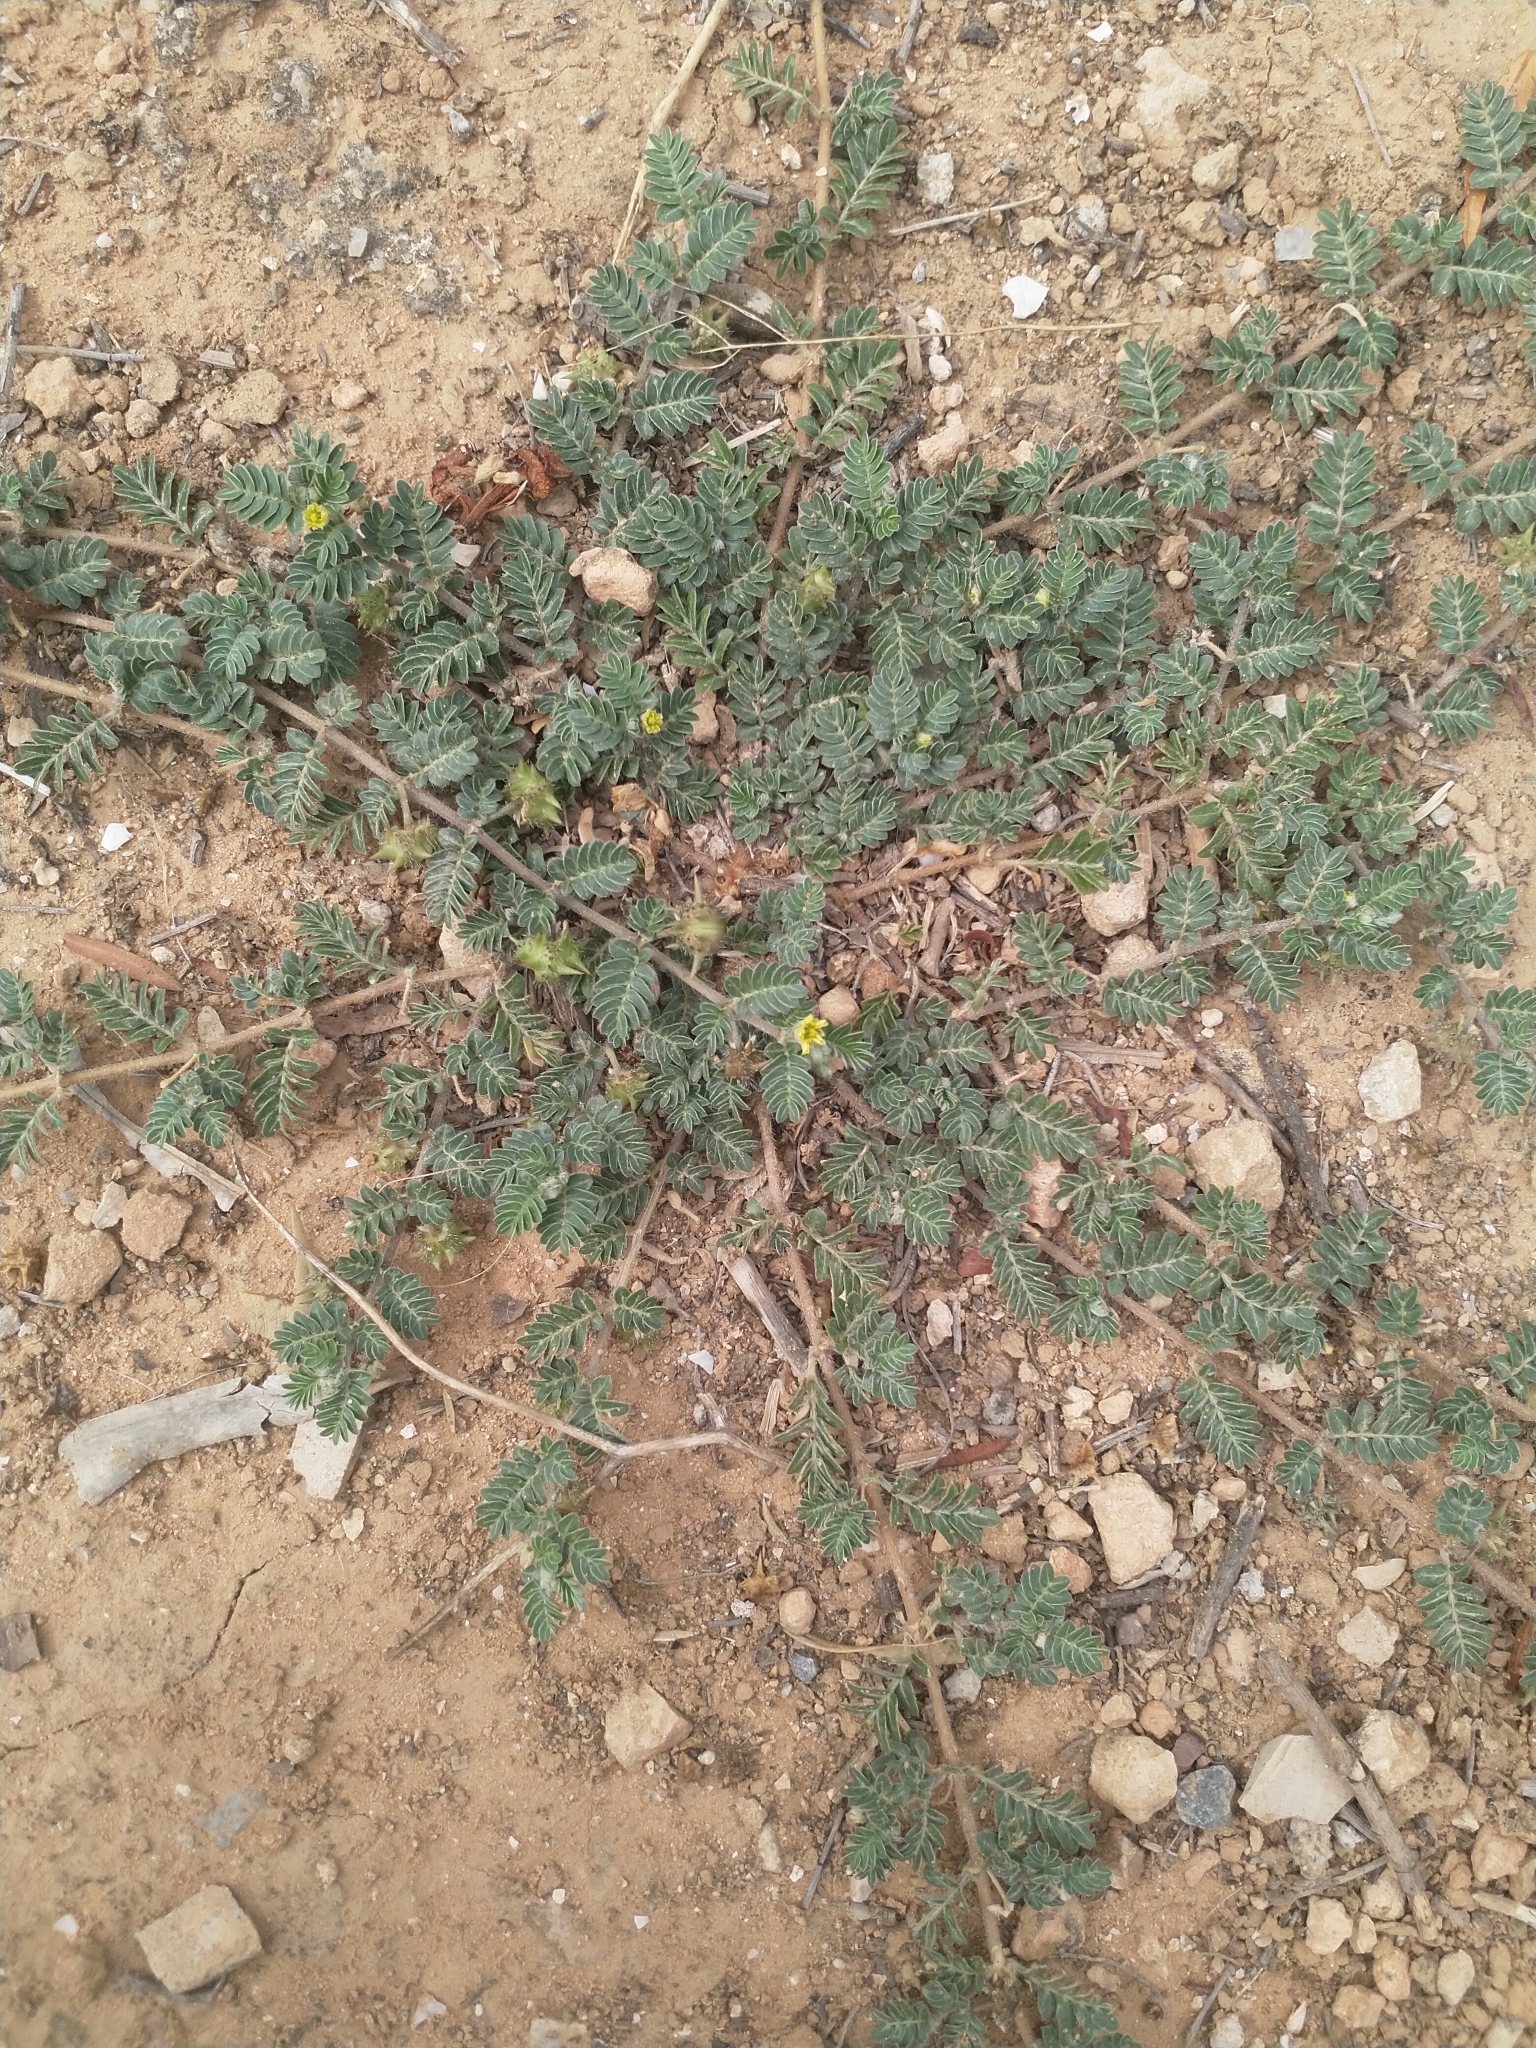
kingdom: Plantae
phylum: Tracheophyta
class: Magnoliopsida
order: Zygophyllales
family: Zygophyllaceae
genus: Tribulus
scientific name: Tribulus terrestris
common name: Puncturevine
